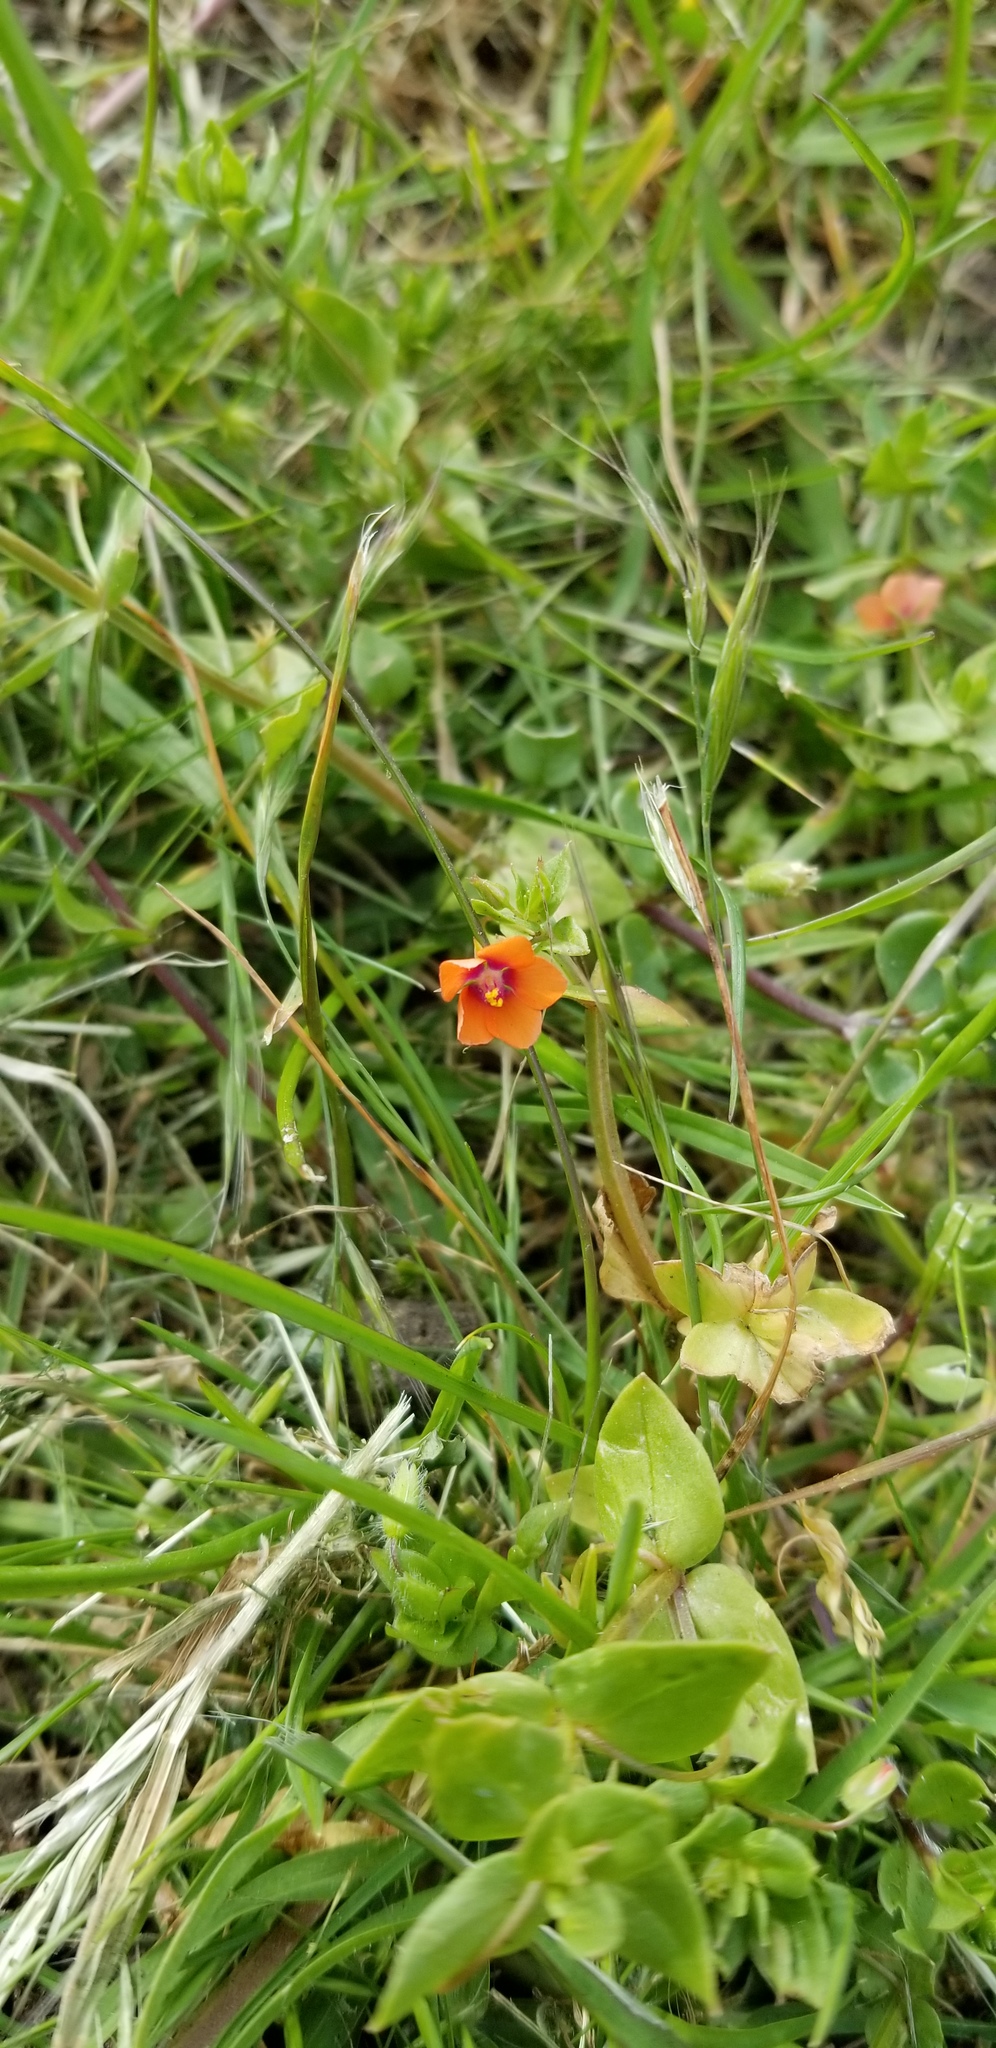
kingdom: Plantae
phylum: Tracheophyta
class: Magnoliopsida
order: Ericales
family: Primulaceae
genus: Lysimachia
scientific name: Lysimachia arvensis
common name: Scarlet pimpernel
